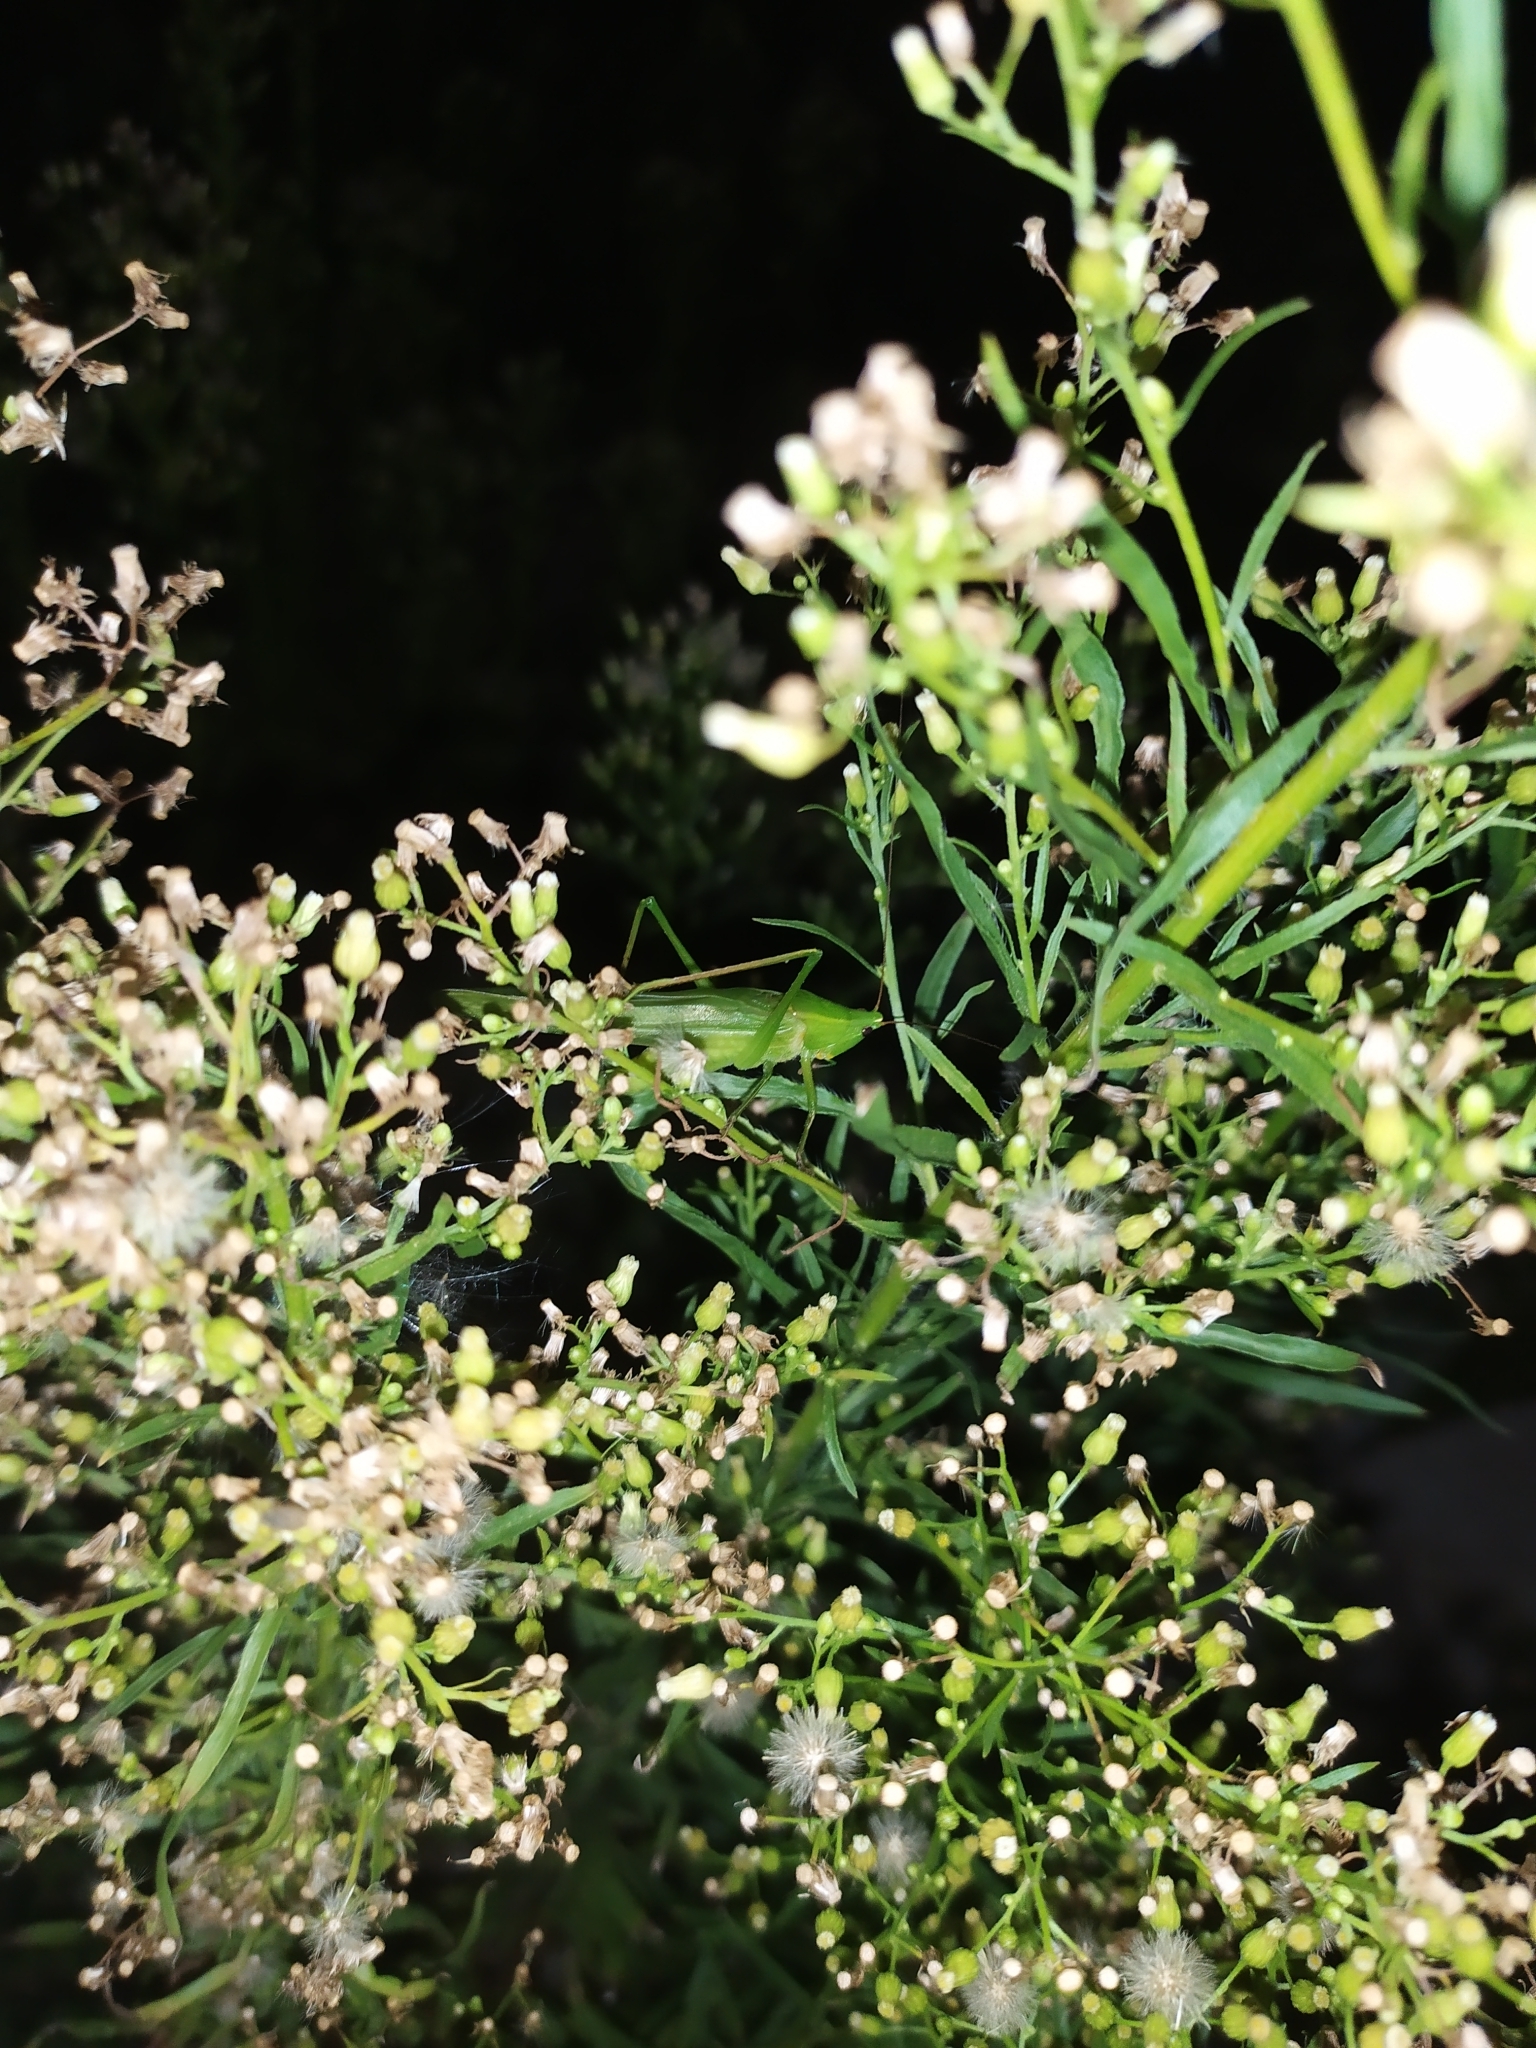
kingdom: Animalia
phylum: Arthropoda
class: Insecta
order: Orthoptera
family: Tettigoniidae
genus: Ruspolia
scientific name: Ruspolia nitidula
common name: Large conehead
